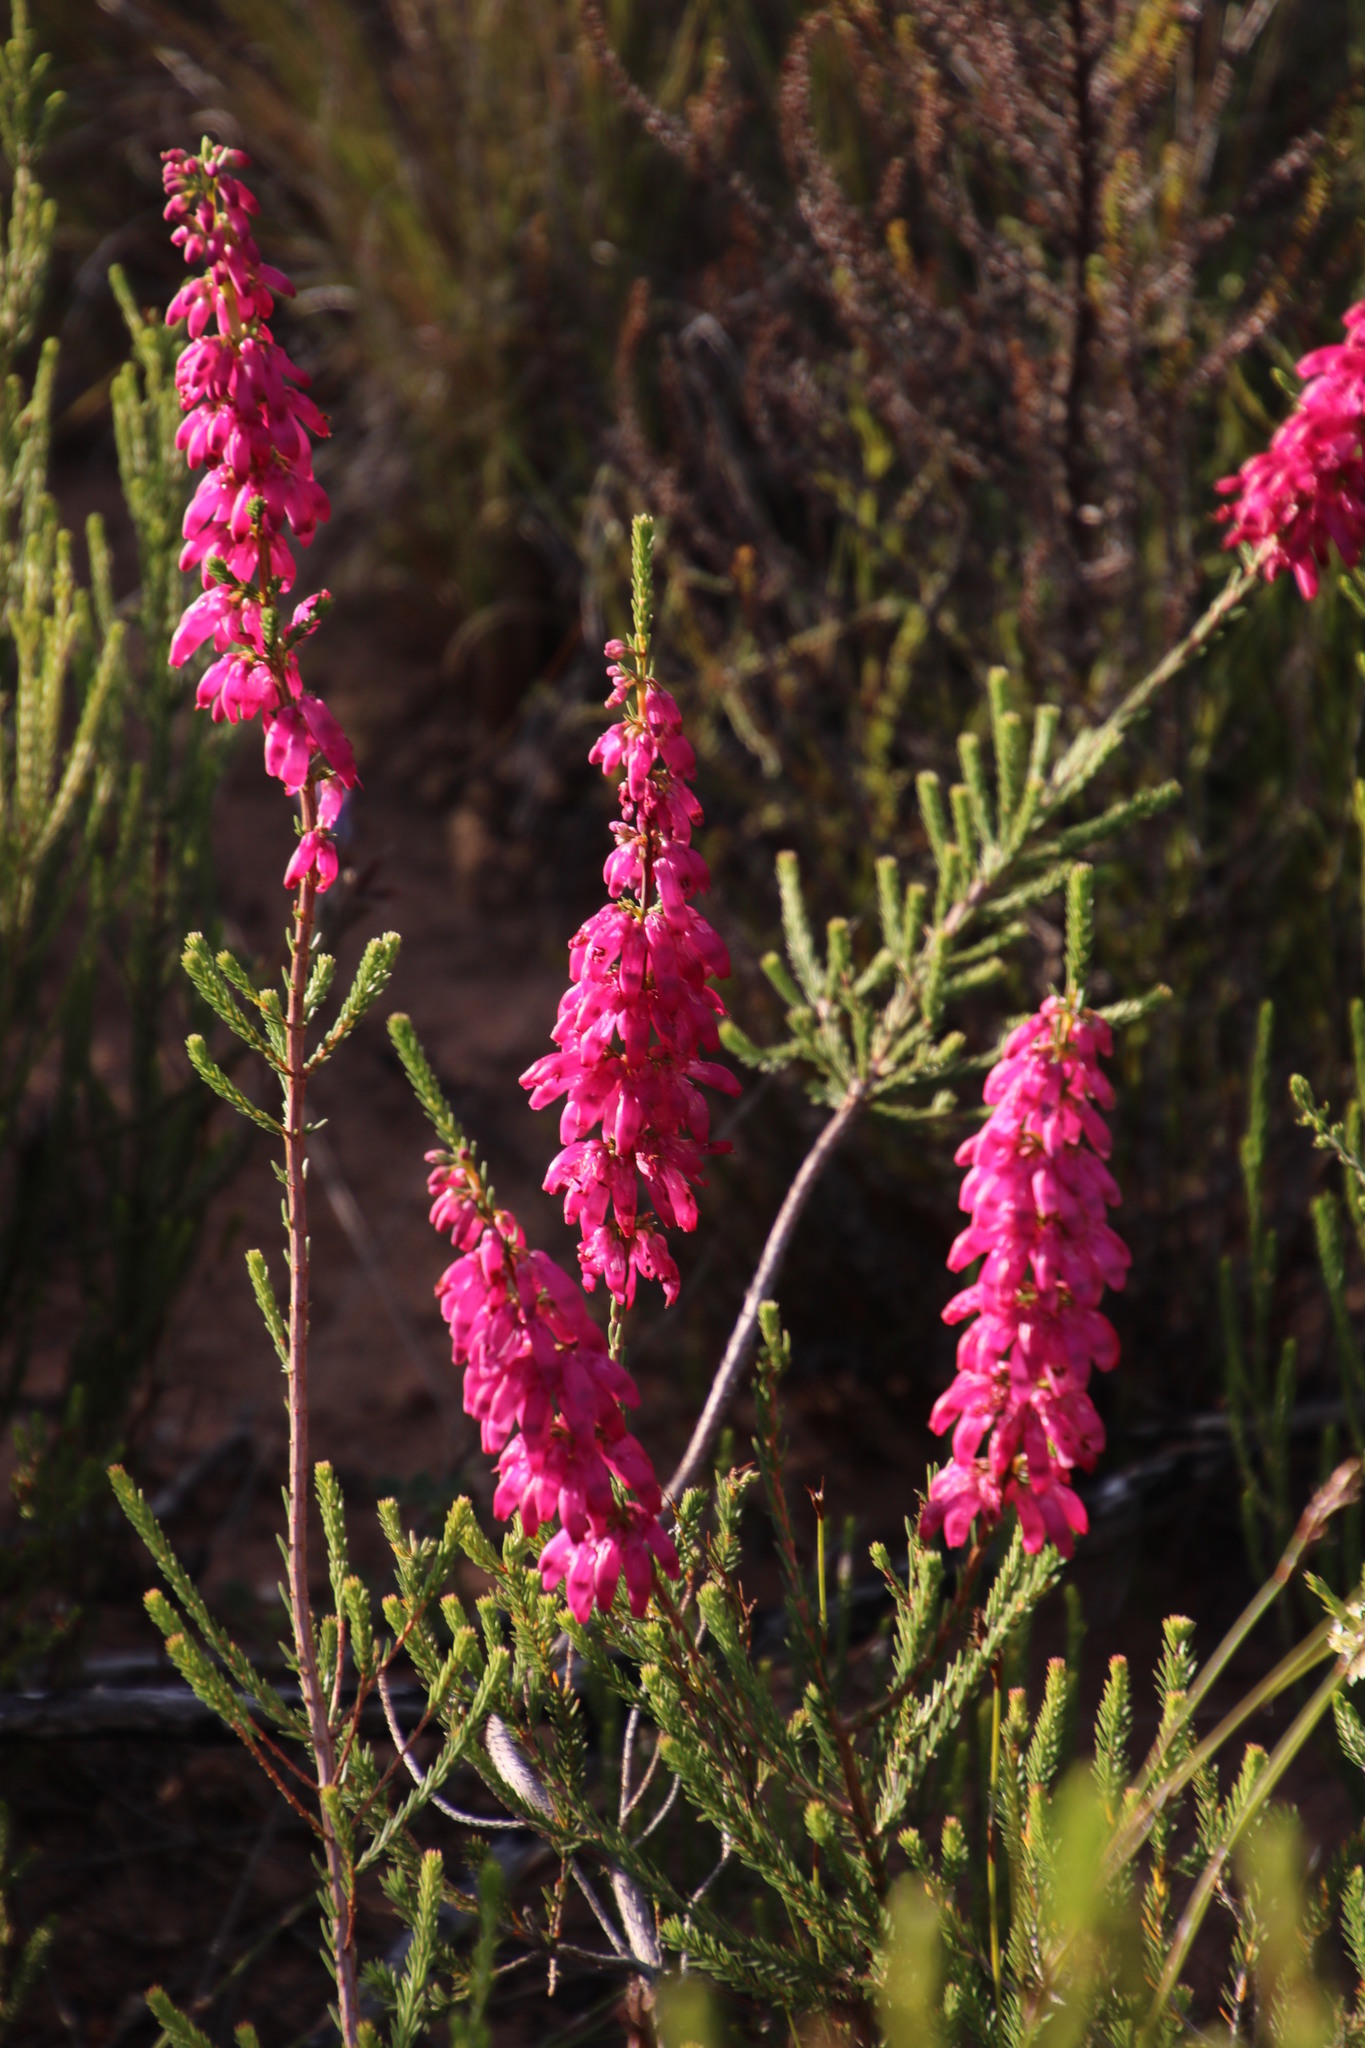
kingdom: Plantae
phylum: Tracheophyta
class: Magnoliopsida
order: Ericales
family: Ericaceae
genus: Erica
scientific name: Erica mammosa
